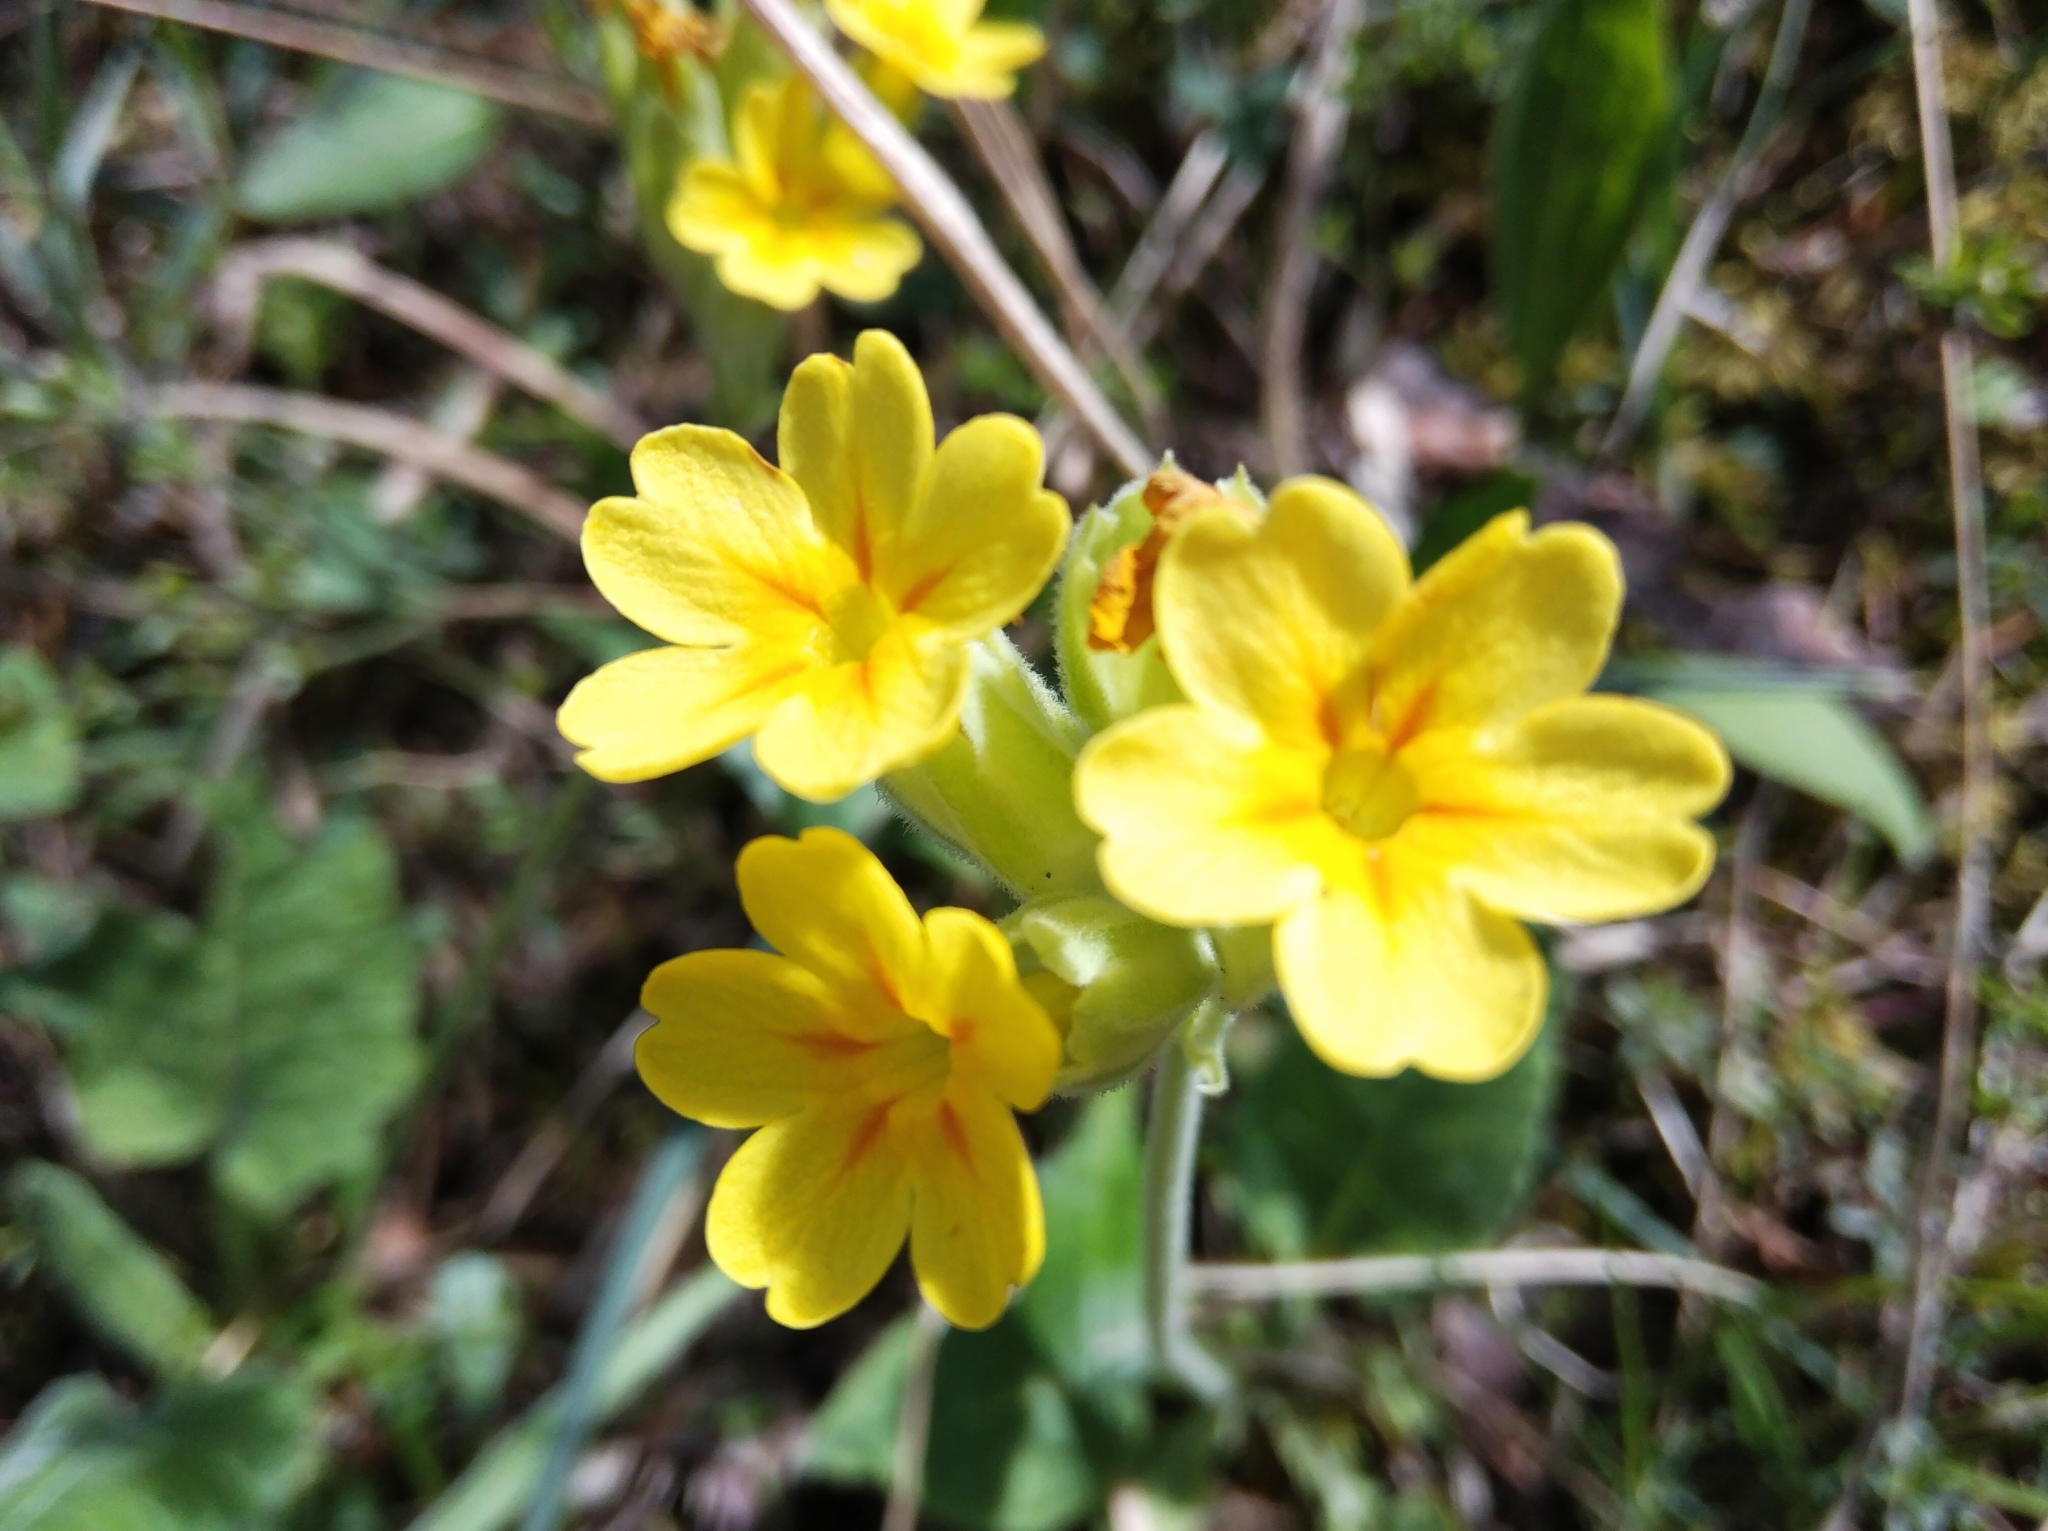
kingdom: Plantae
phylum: Tracheophyta
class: Magnoliopsida
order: Ericales
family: Primulaceae
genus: Primula
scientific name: Primula veris
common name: Cowslip
